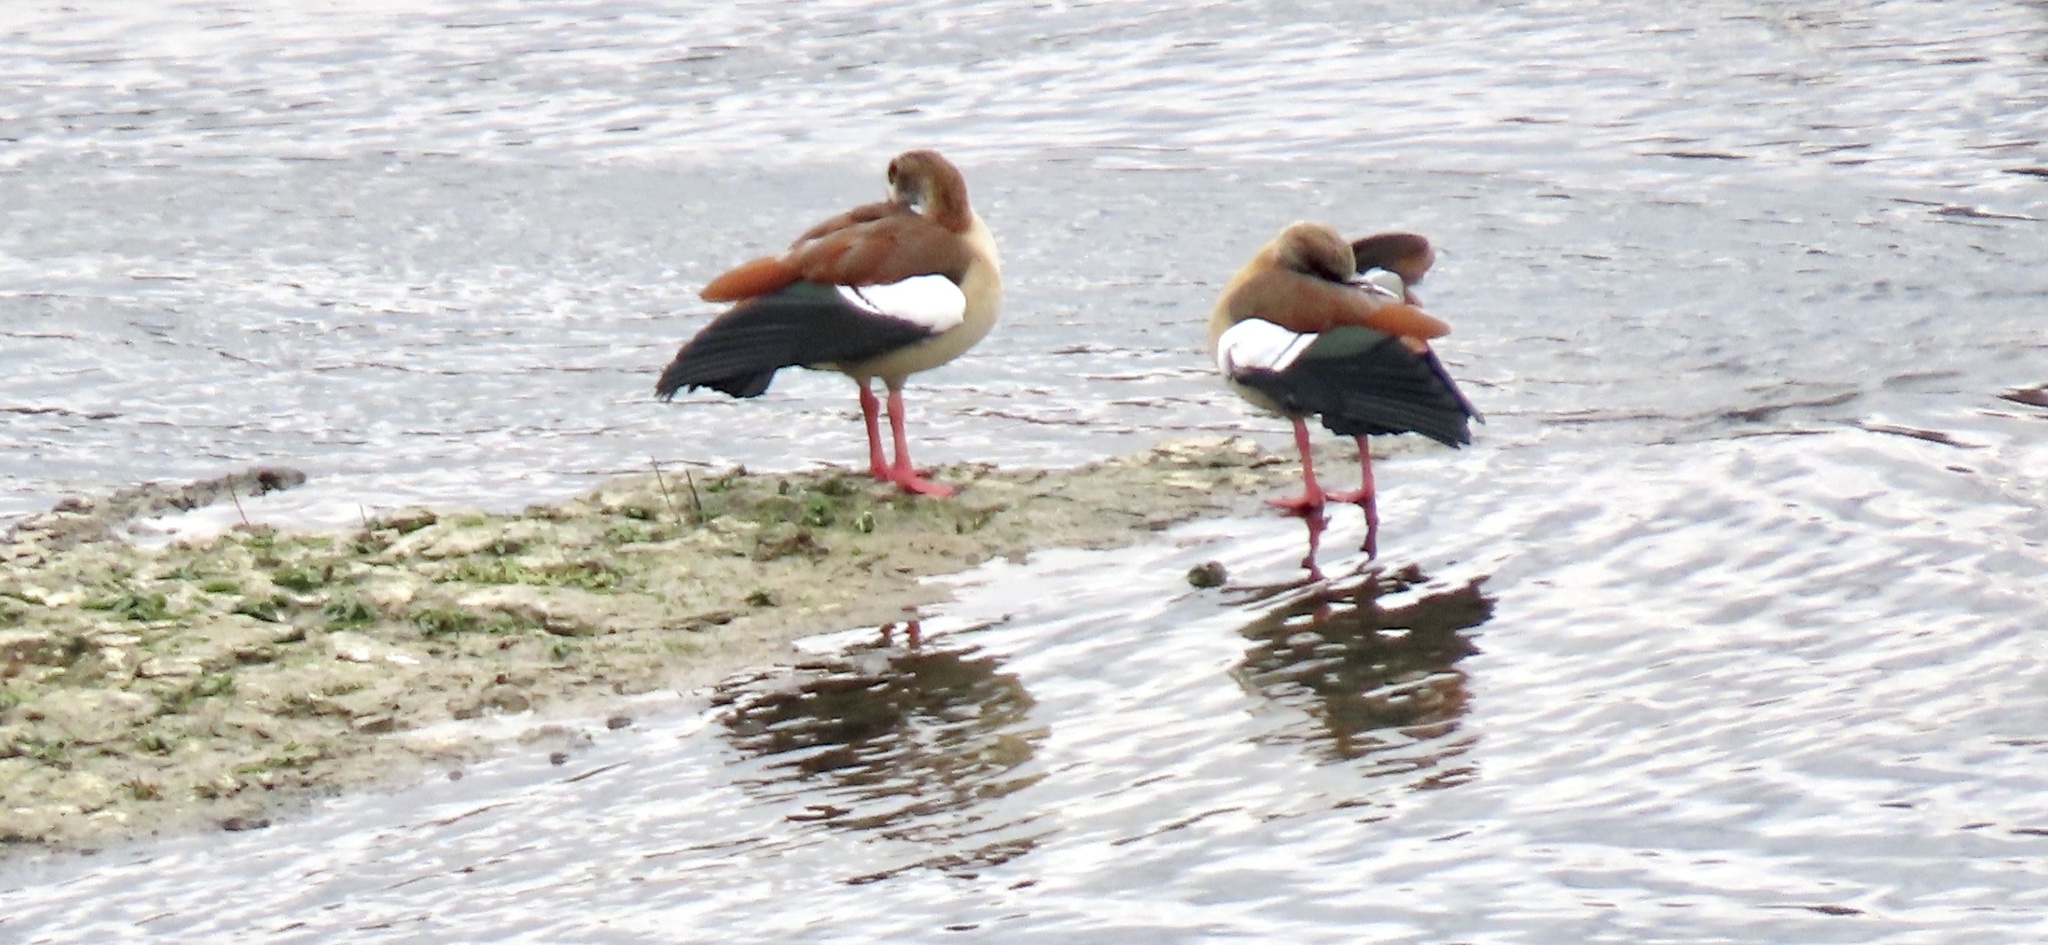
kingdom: Animalia
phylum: Chordata
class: Aves
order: Anseriformes
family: Anatidae
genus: Alopochen
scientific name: Alopochen aegyptiaca
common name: Egyptian goose
